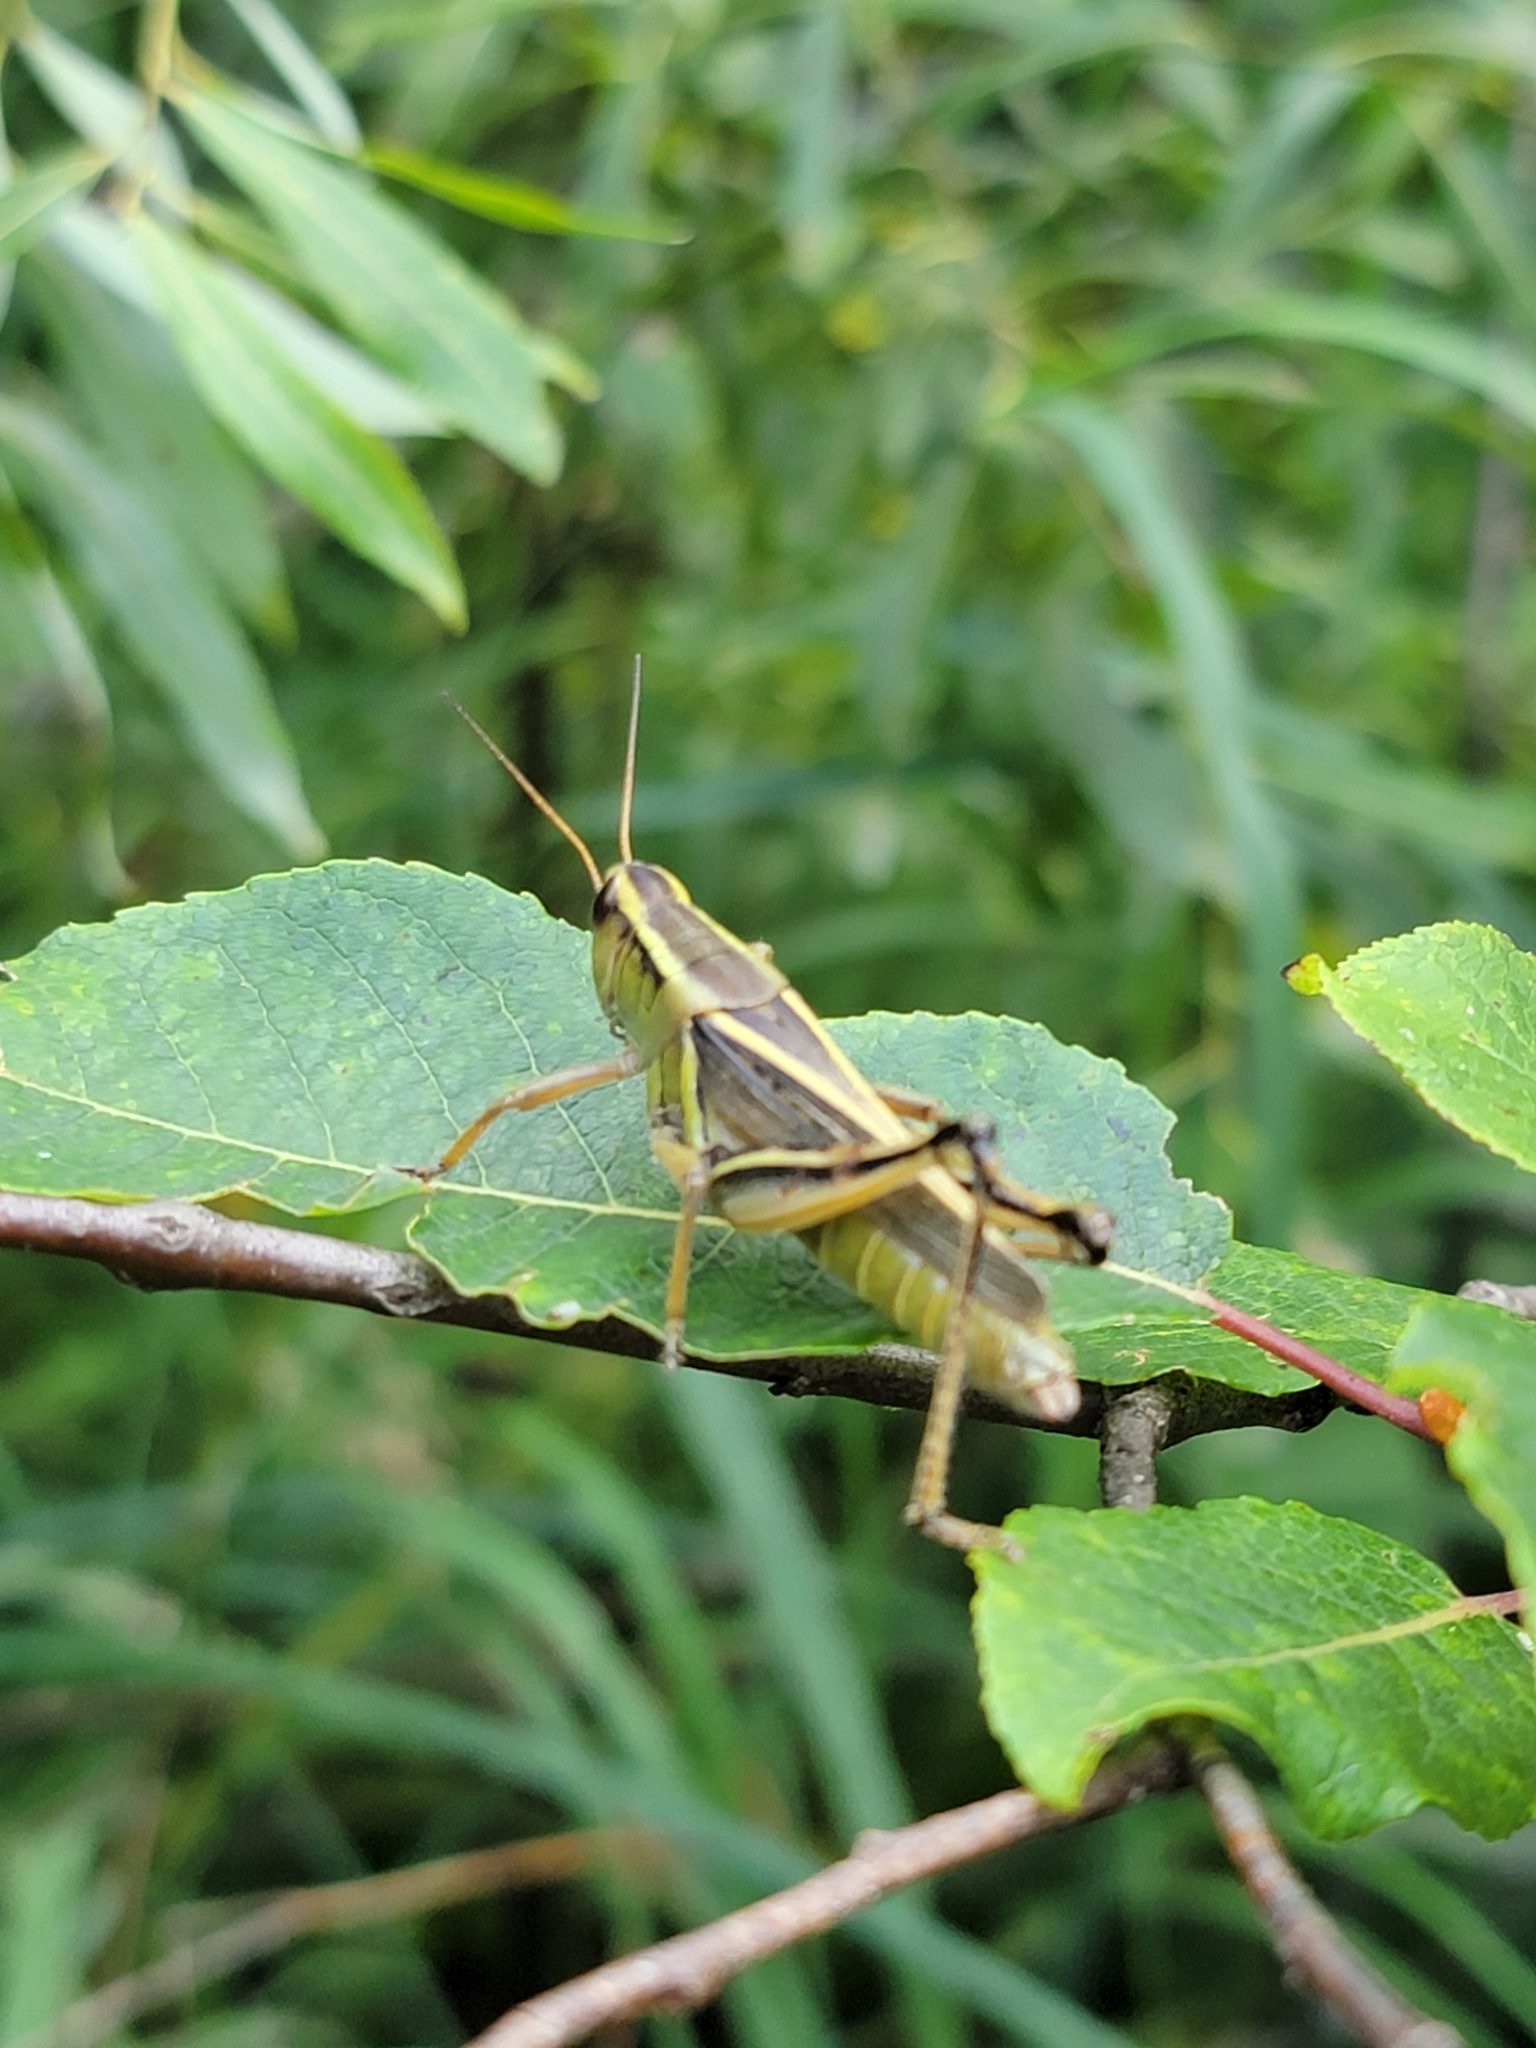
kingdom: Animalia
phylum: Arthropoda
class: Insecta
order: Orthoptera
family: Acrididae
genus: Melanoplus
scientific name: Melanoplus bivittatus
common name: Two-striped grasshopper
